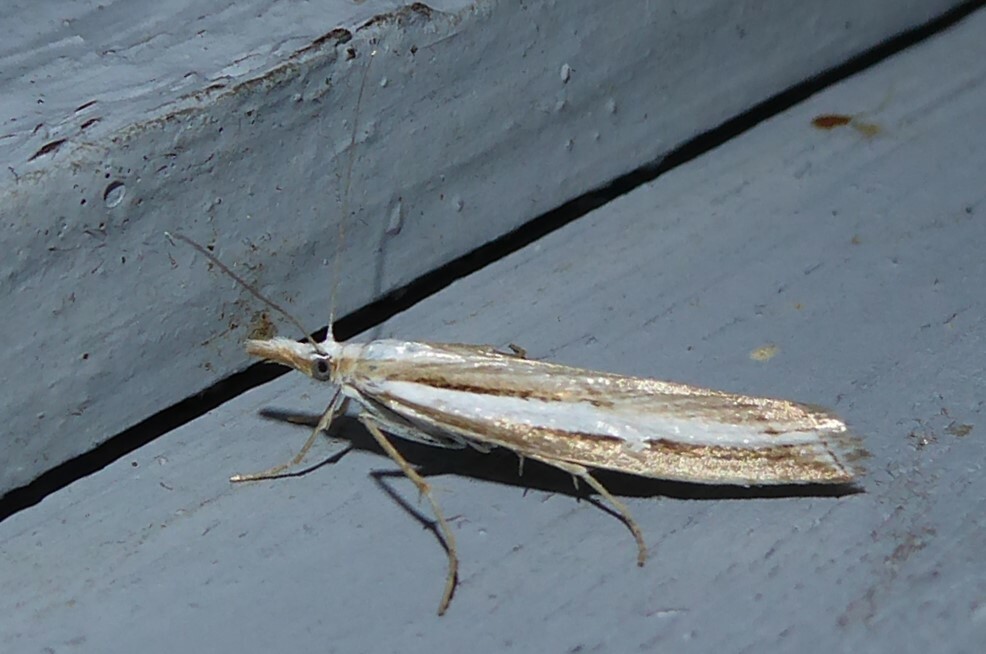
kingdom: Animalia
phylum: Arthropoda
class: Insecta
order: Lepidoptera
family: Crambidae
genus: Orocrambus
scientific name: Orocrambus vittellus
